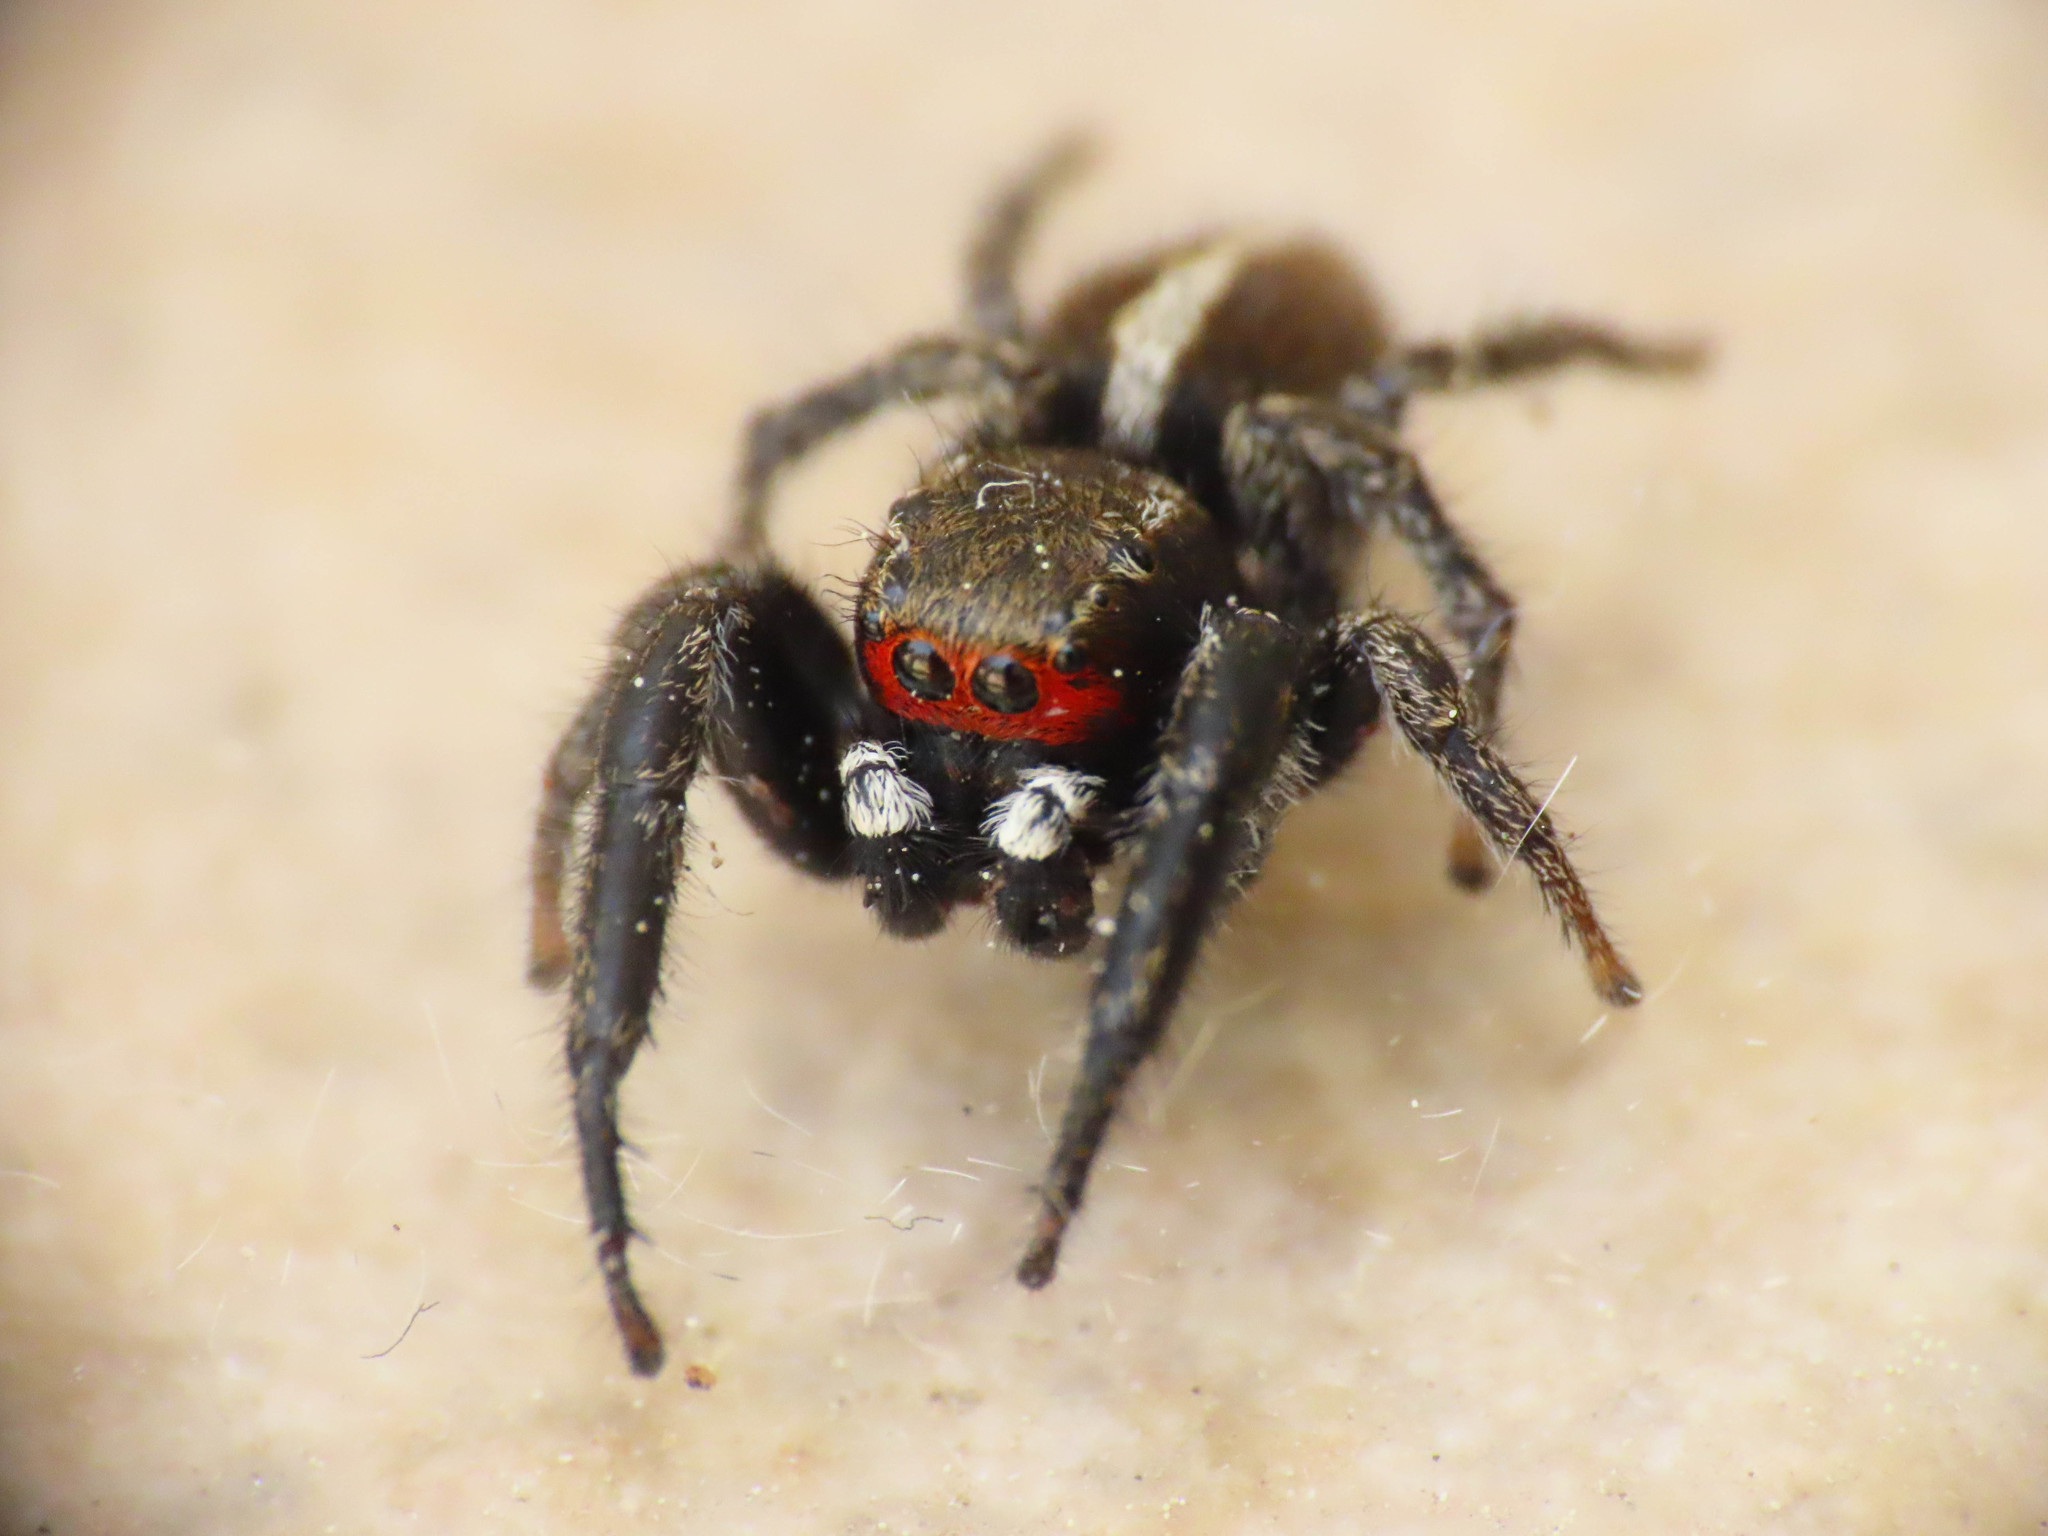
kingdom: Animalia
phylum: Arthropoda
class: Arachnida
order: Araneae
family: Salticidae
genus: Pellenes
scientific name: Pellenes seriatus
